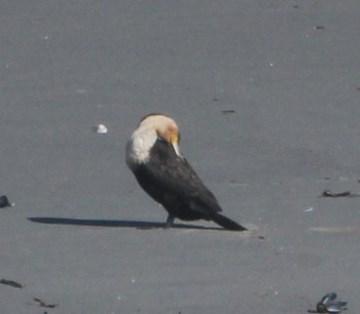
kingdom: Animalia
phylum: Chordata
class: Aves
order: Suliformes
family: Phalacrocoracidae
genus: Phalacrocorax
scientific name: Phalacrocorax carbo
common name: Great cormorant
